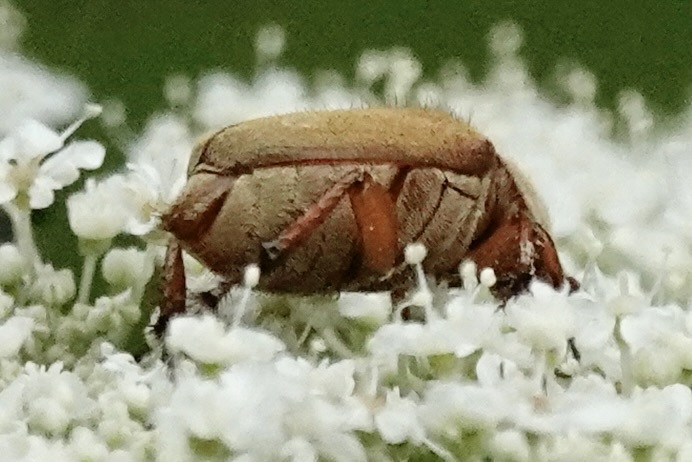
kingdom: Animalia
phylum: Arthropoda
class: Insecta
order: Coleoptera
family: Scarabaeidae
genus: Macrodactylus
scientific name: Macrodactylus subspinosus
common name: American rose chafer
